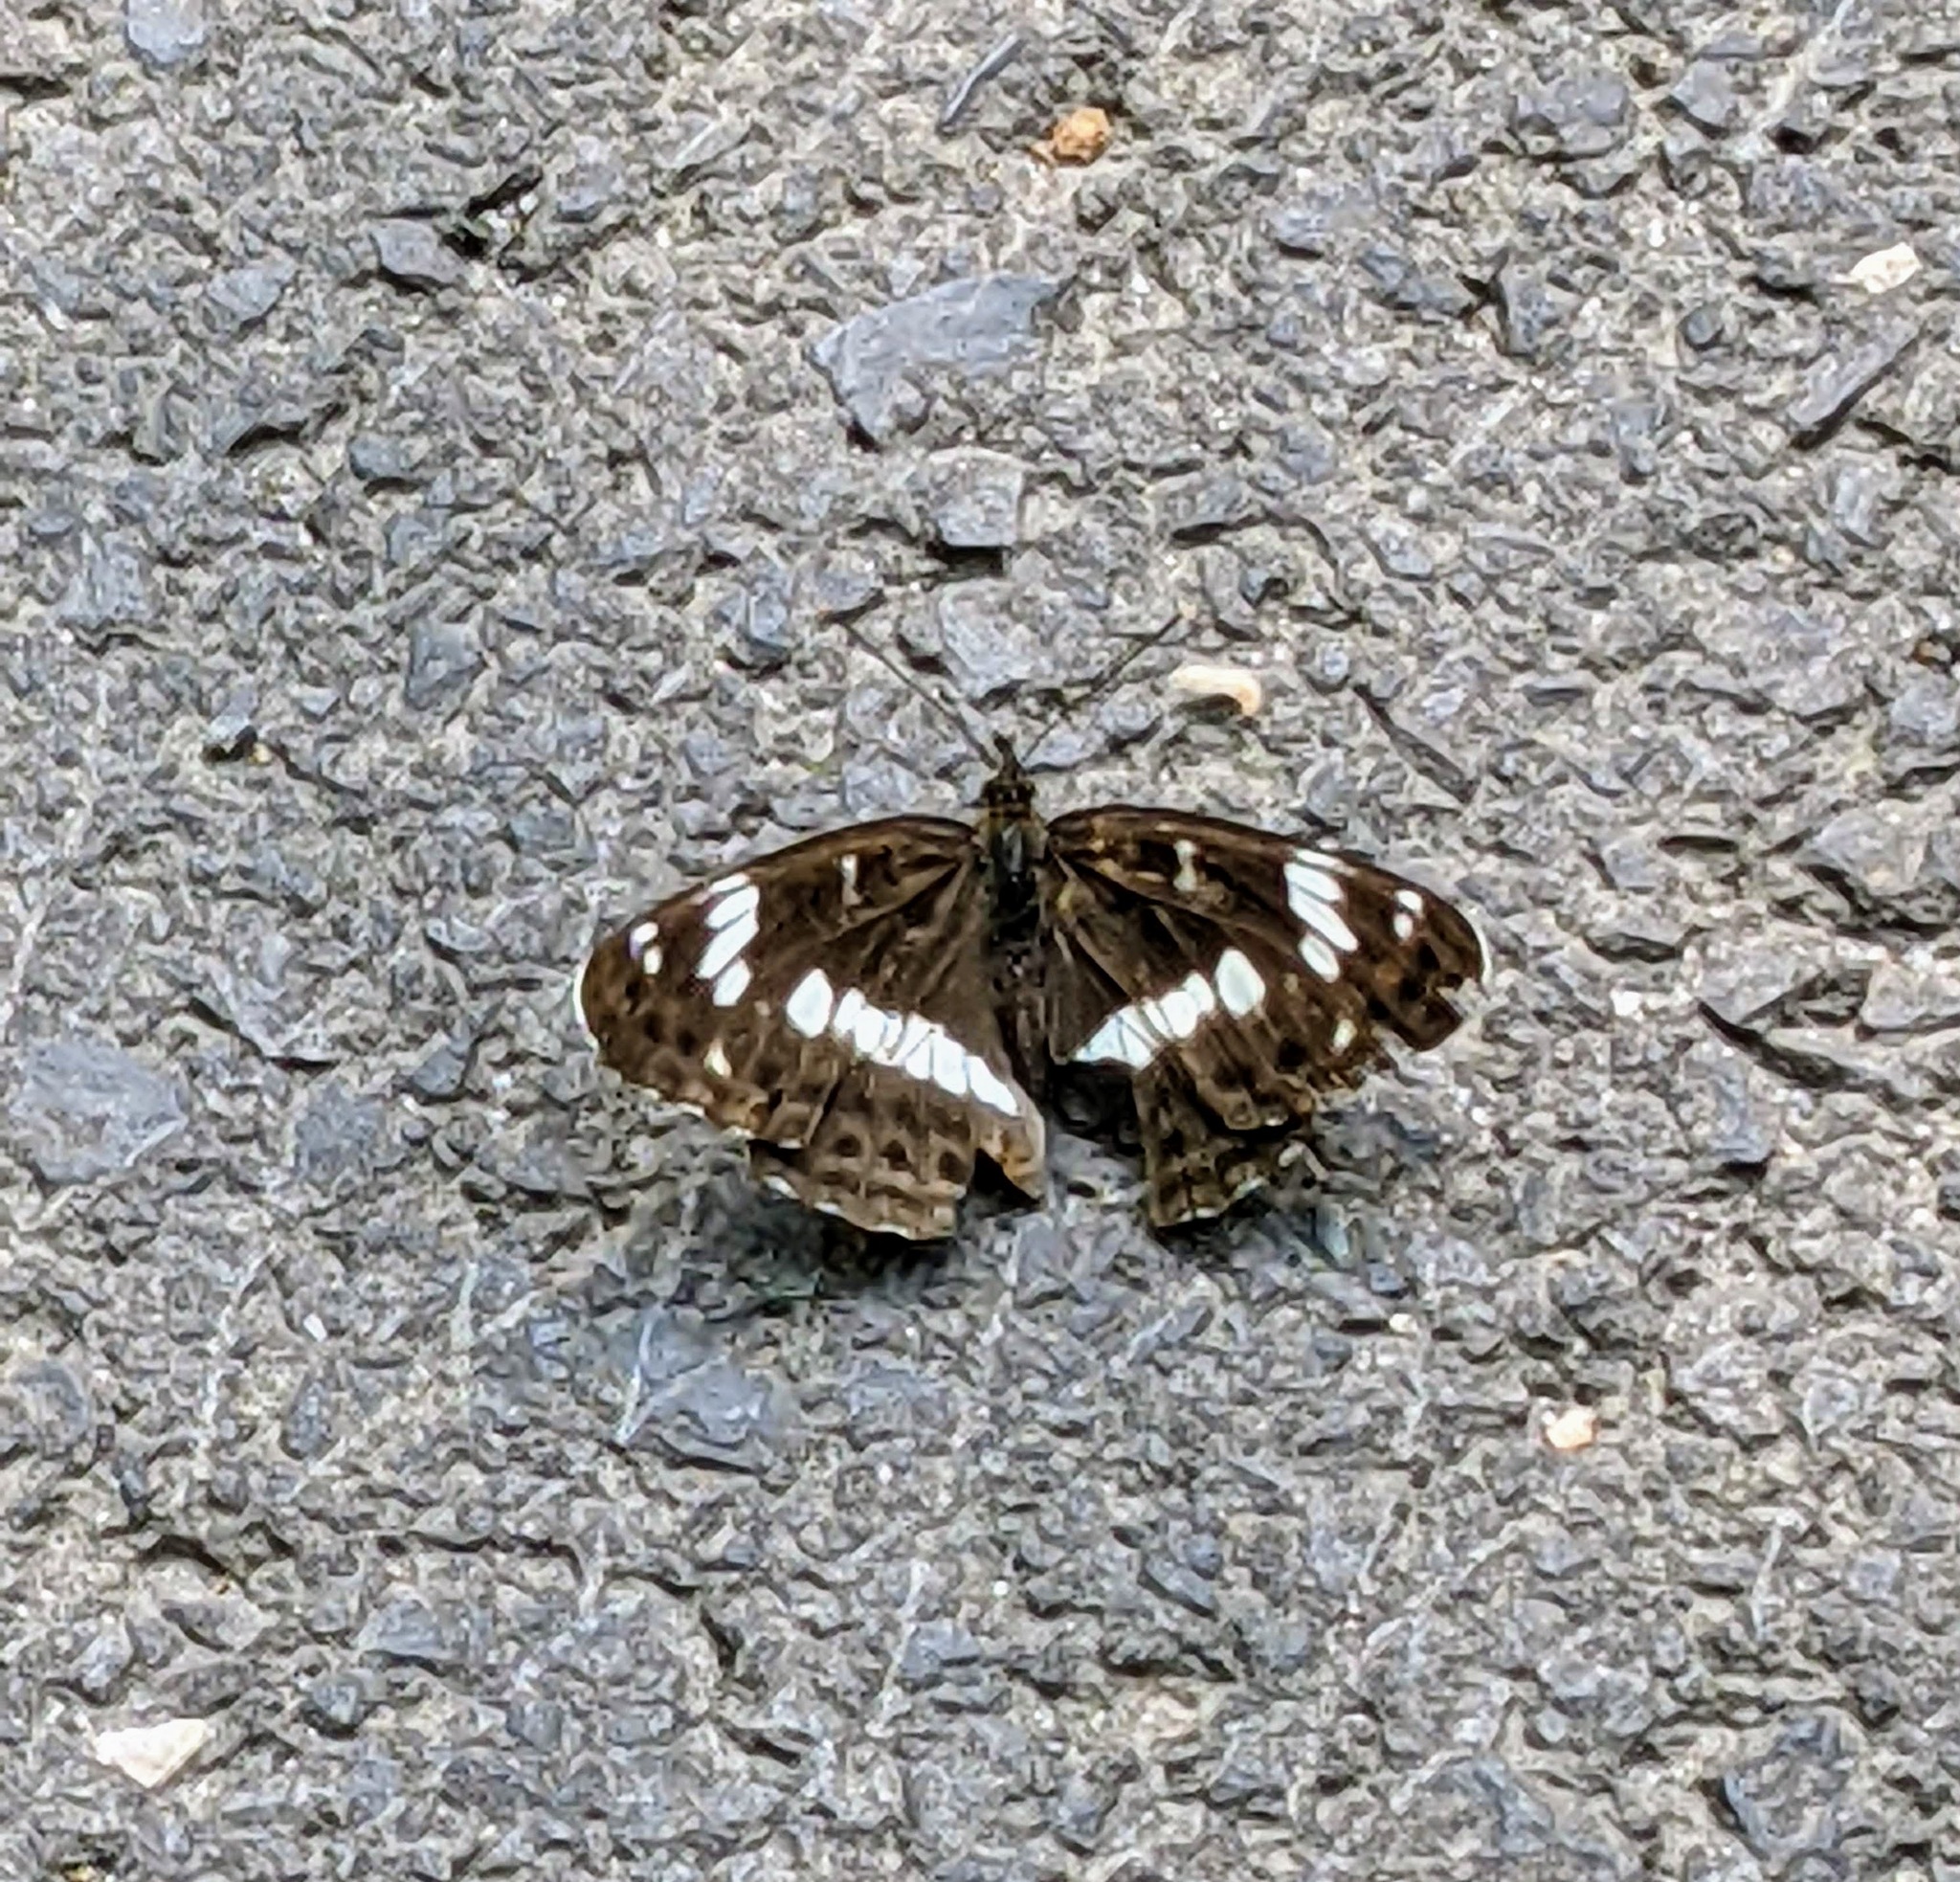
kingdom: Animalia
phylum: Arthropoda
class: Insecta
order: Lepidoptera
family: Nymphalidae
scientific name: Nymphalidae
